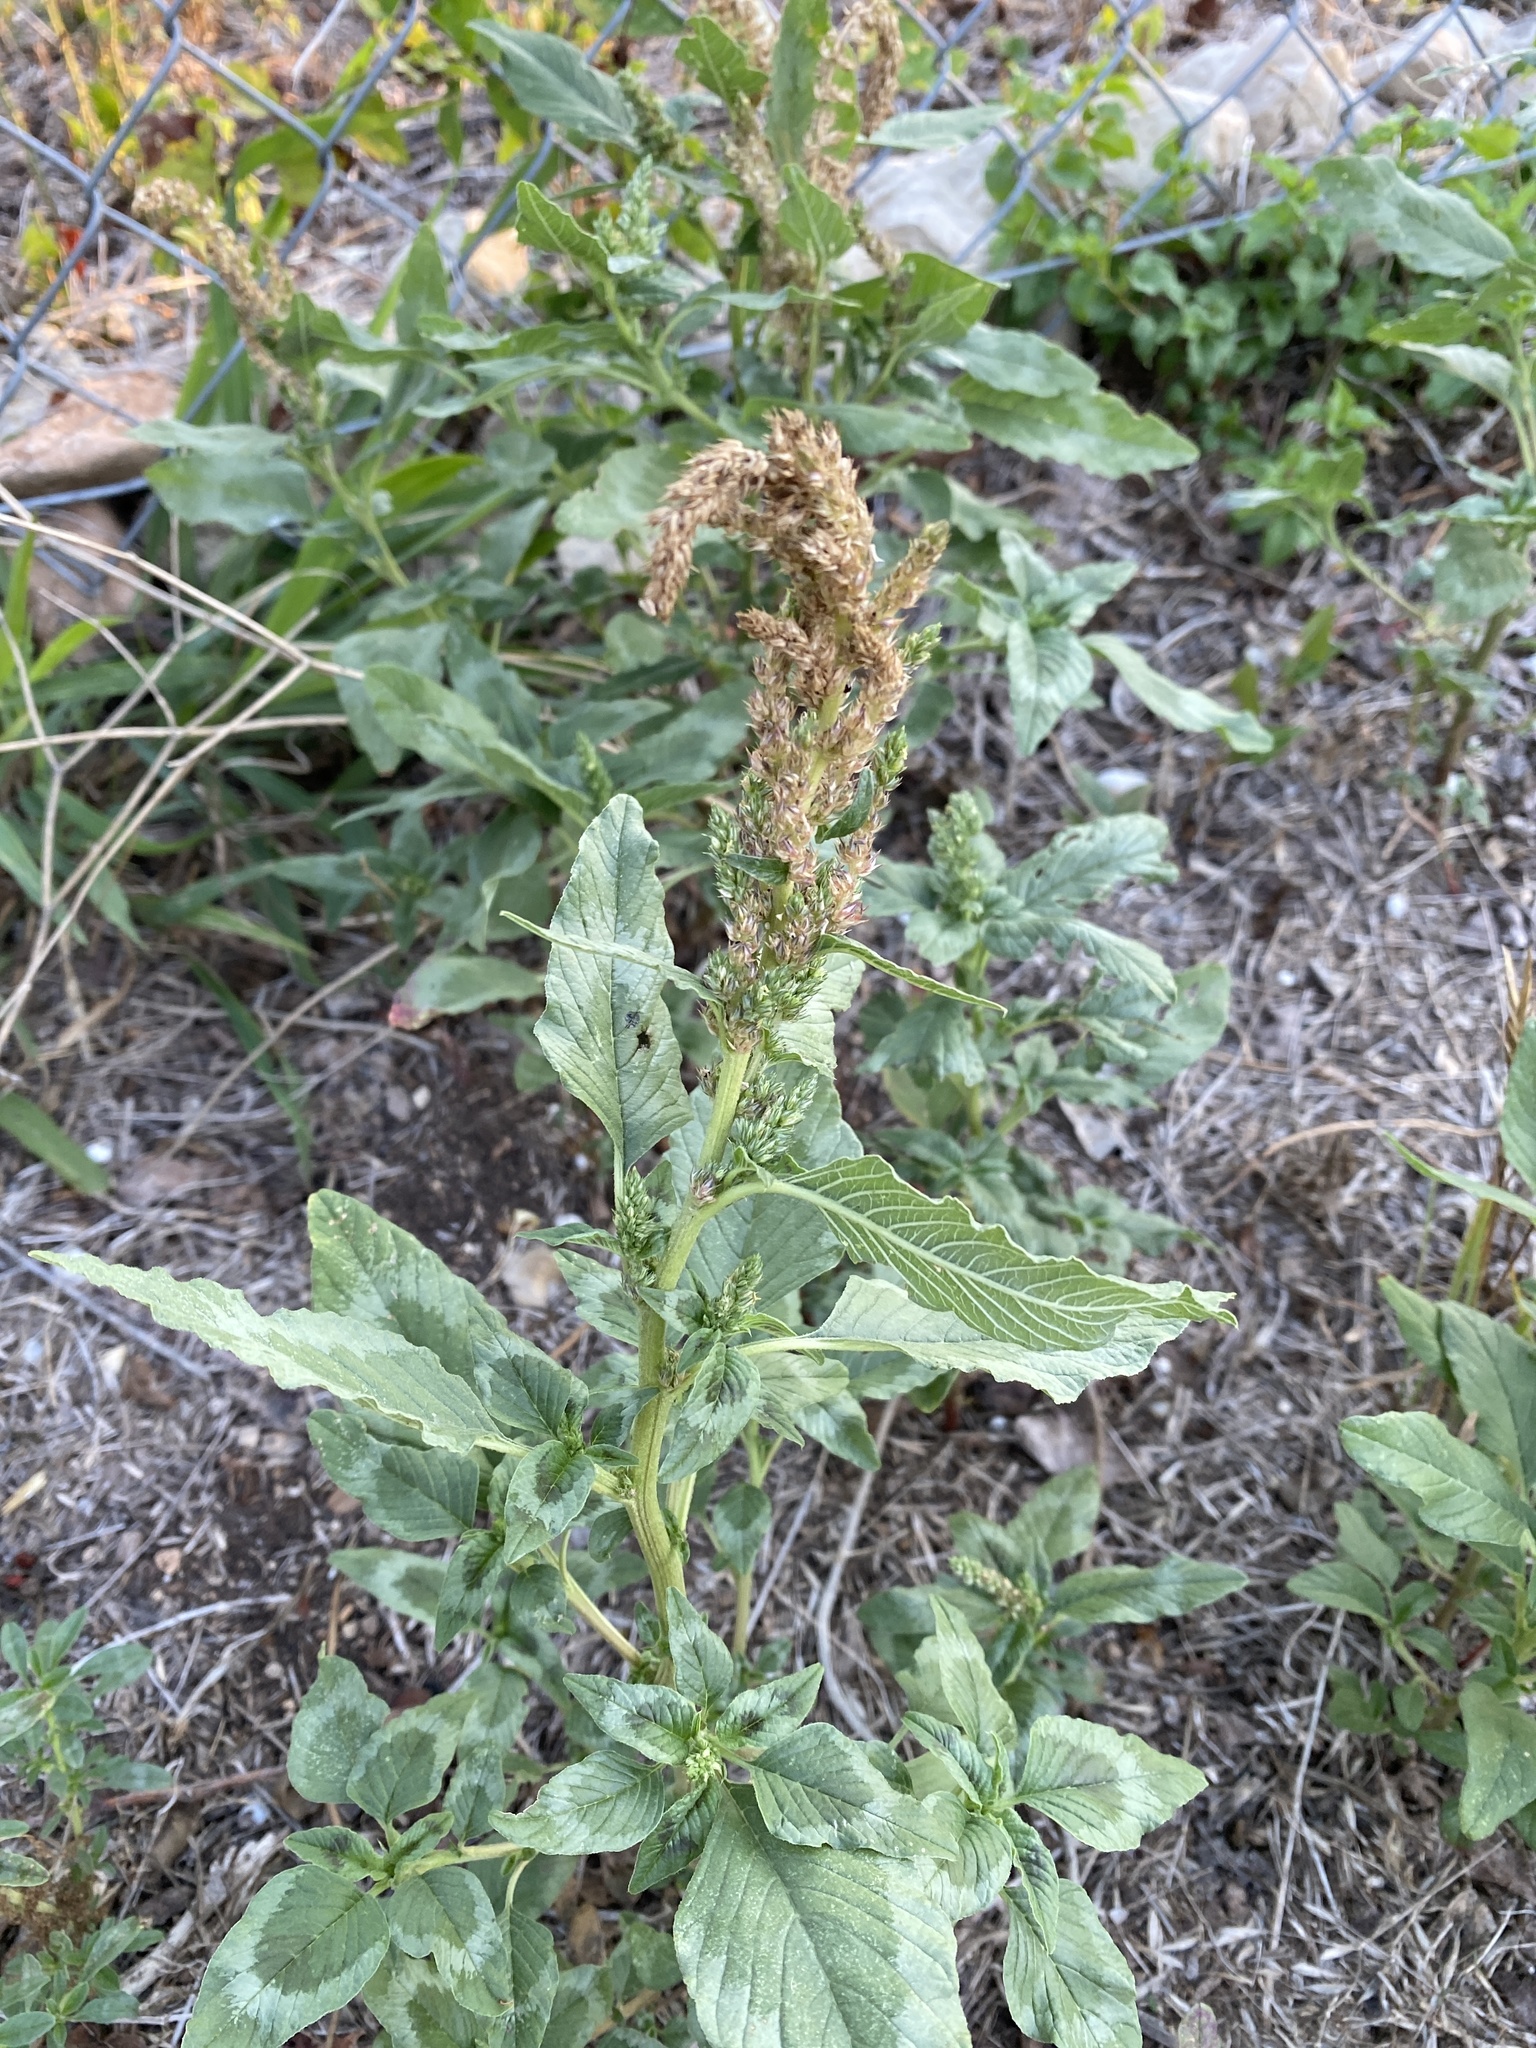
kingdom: Plantae
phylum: Tracheophyta
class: Magnoliopsida
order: Caryophyllales
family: Amaranthaceae
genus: Amaranthus
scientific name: Amaranthus retroflexus
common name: Redroot amaranth
